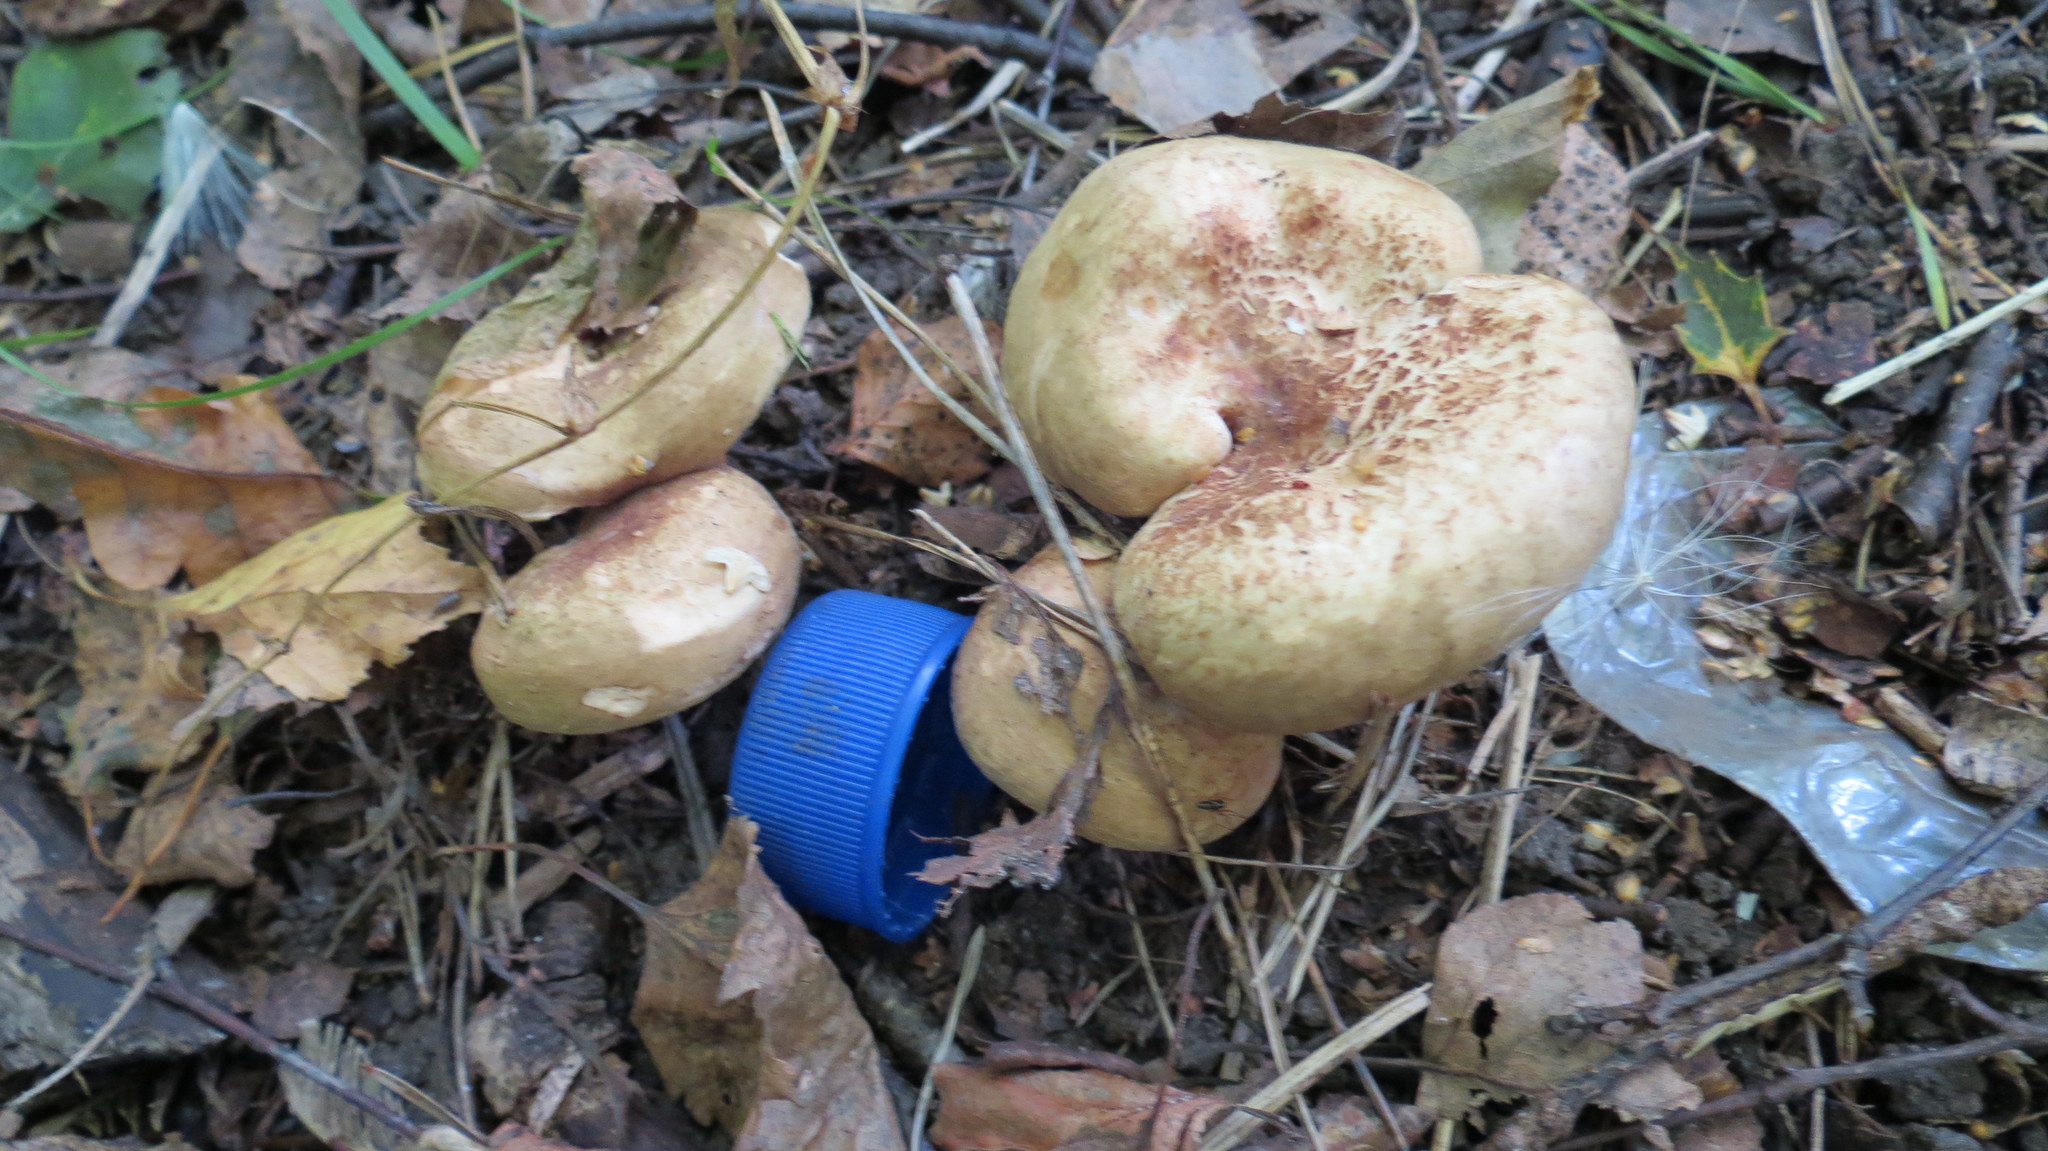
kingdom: Fungi
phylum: Basidiomycota
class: Agaricomycetes
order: Boletales
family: Paxillaceae
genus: Paxillus
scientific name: Paxillus involutus
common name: Brown roll rim
